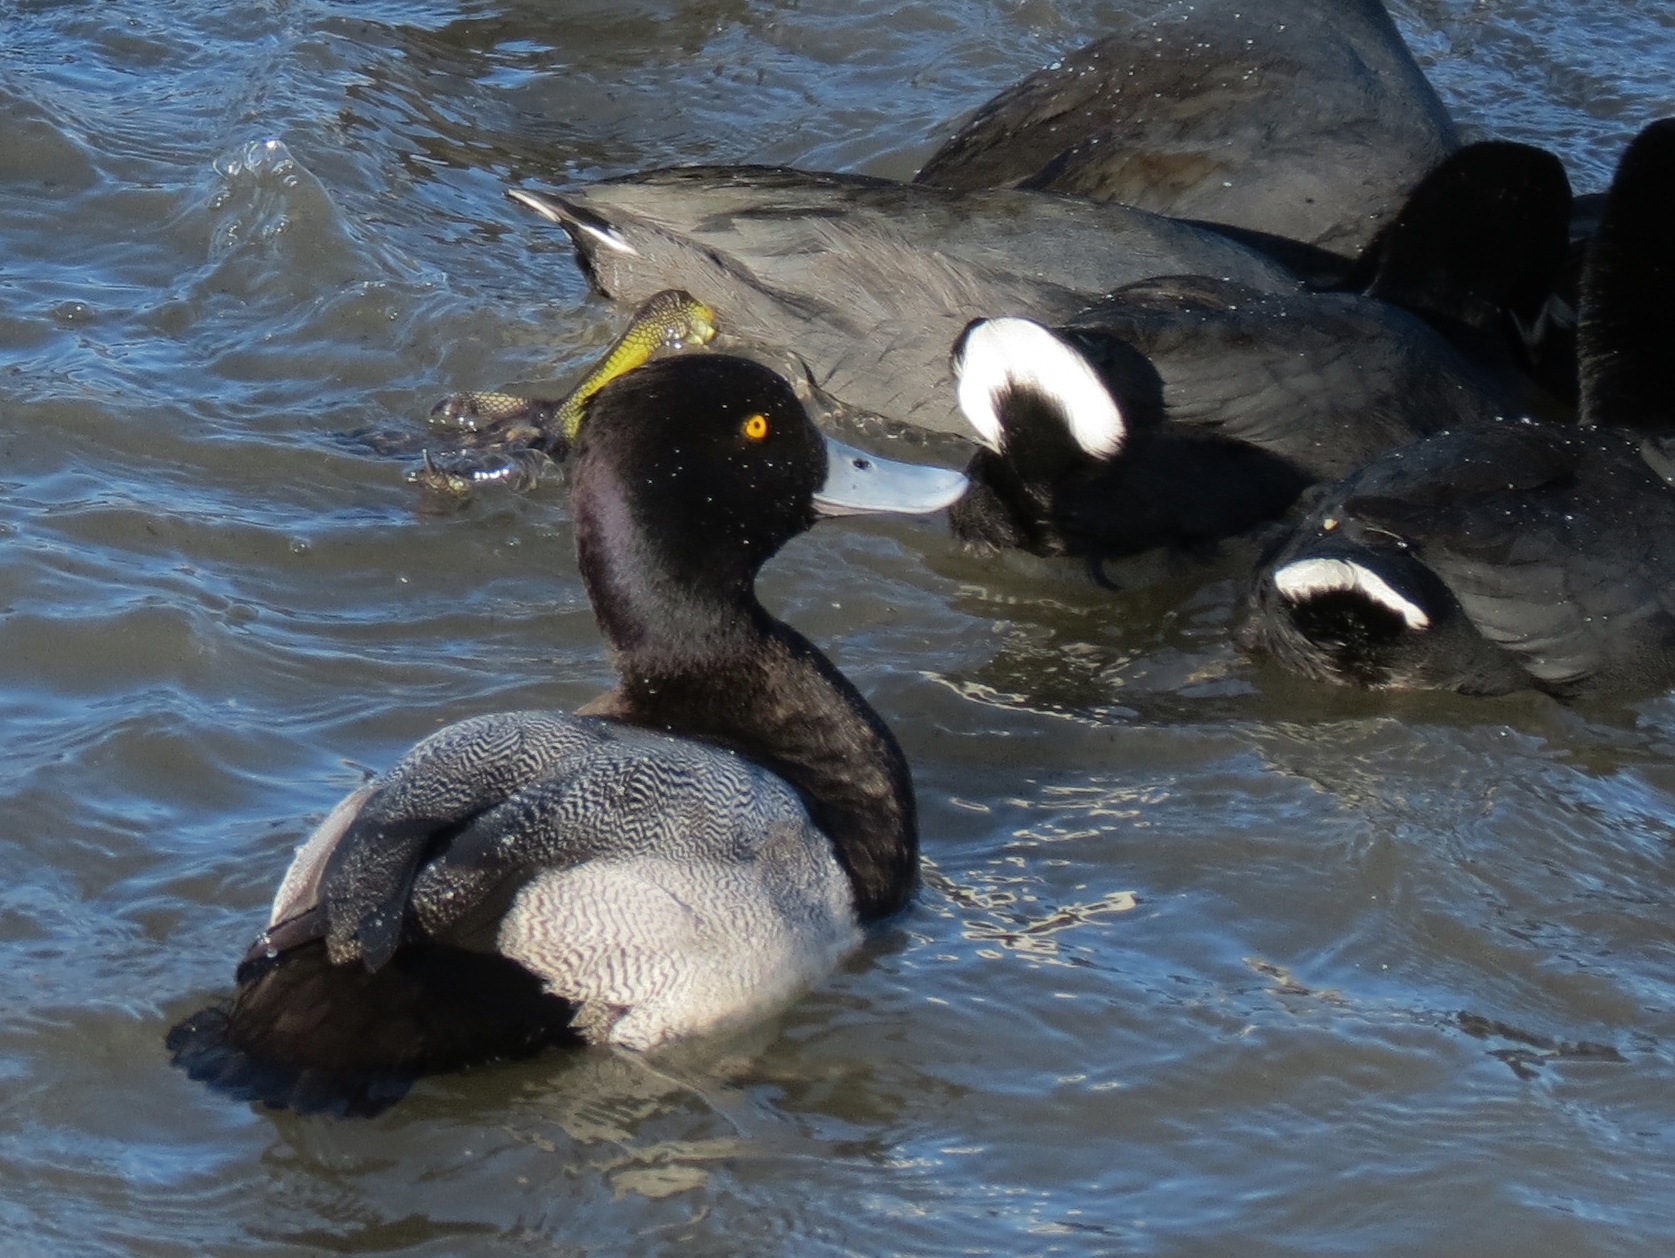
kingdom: Animalia
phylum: Chordata
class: Aves
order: Anseriformes
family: Anatidae
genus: Aythya
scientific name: Aythya affinis
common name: Lesser scaup
